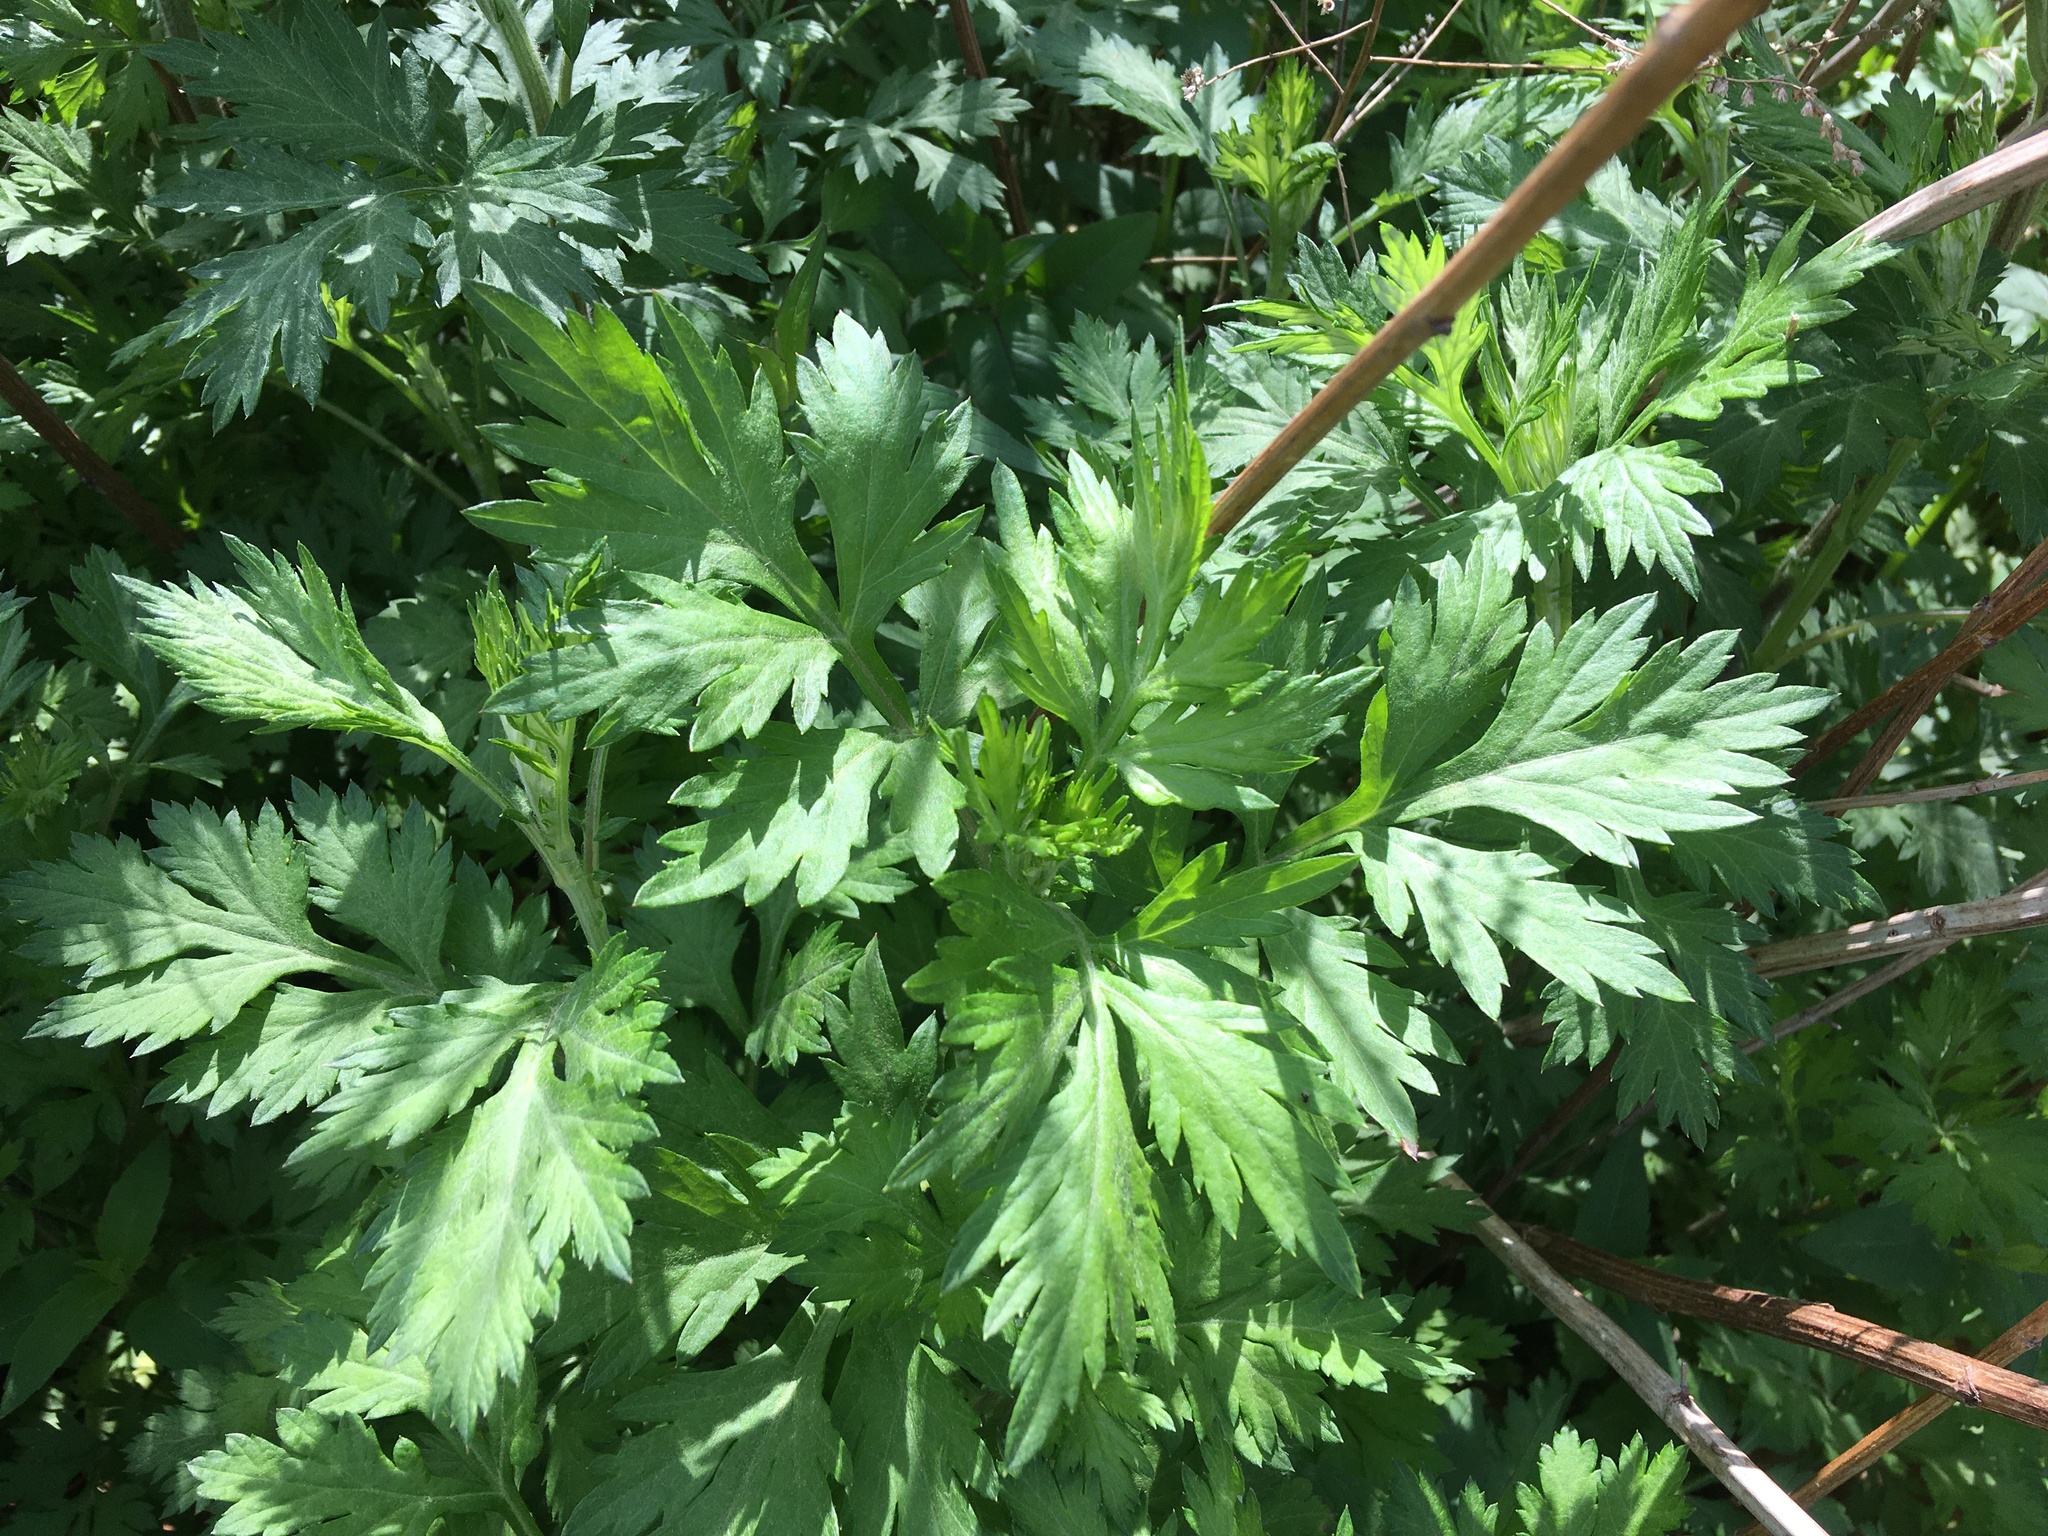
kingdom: Plantae
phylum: Tracheophyta
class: Magnoliopsida
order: Asterales
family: Asteraceae
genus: Artemisia
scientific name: Artemisia vulgaris
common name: Mugwort
